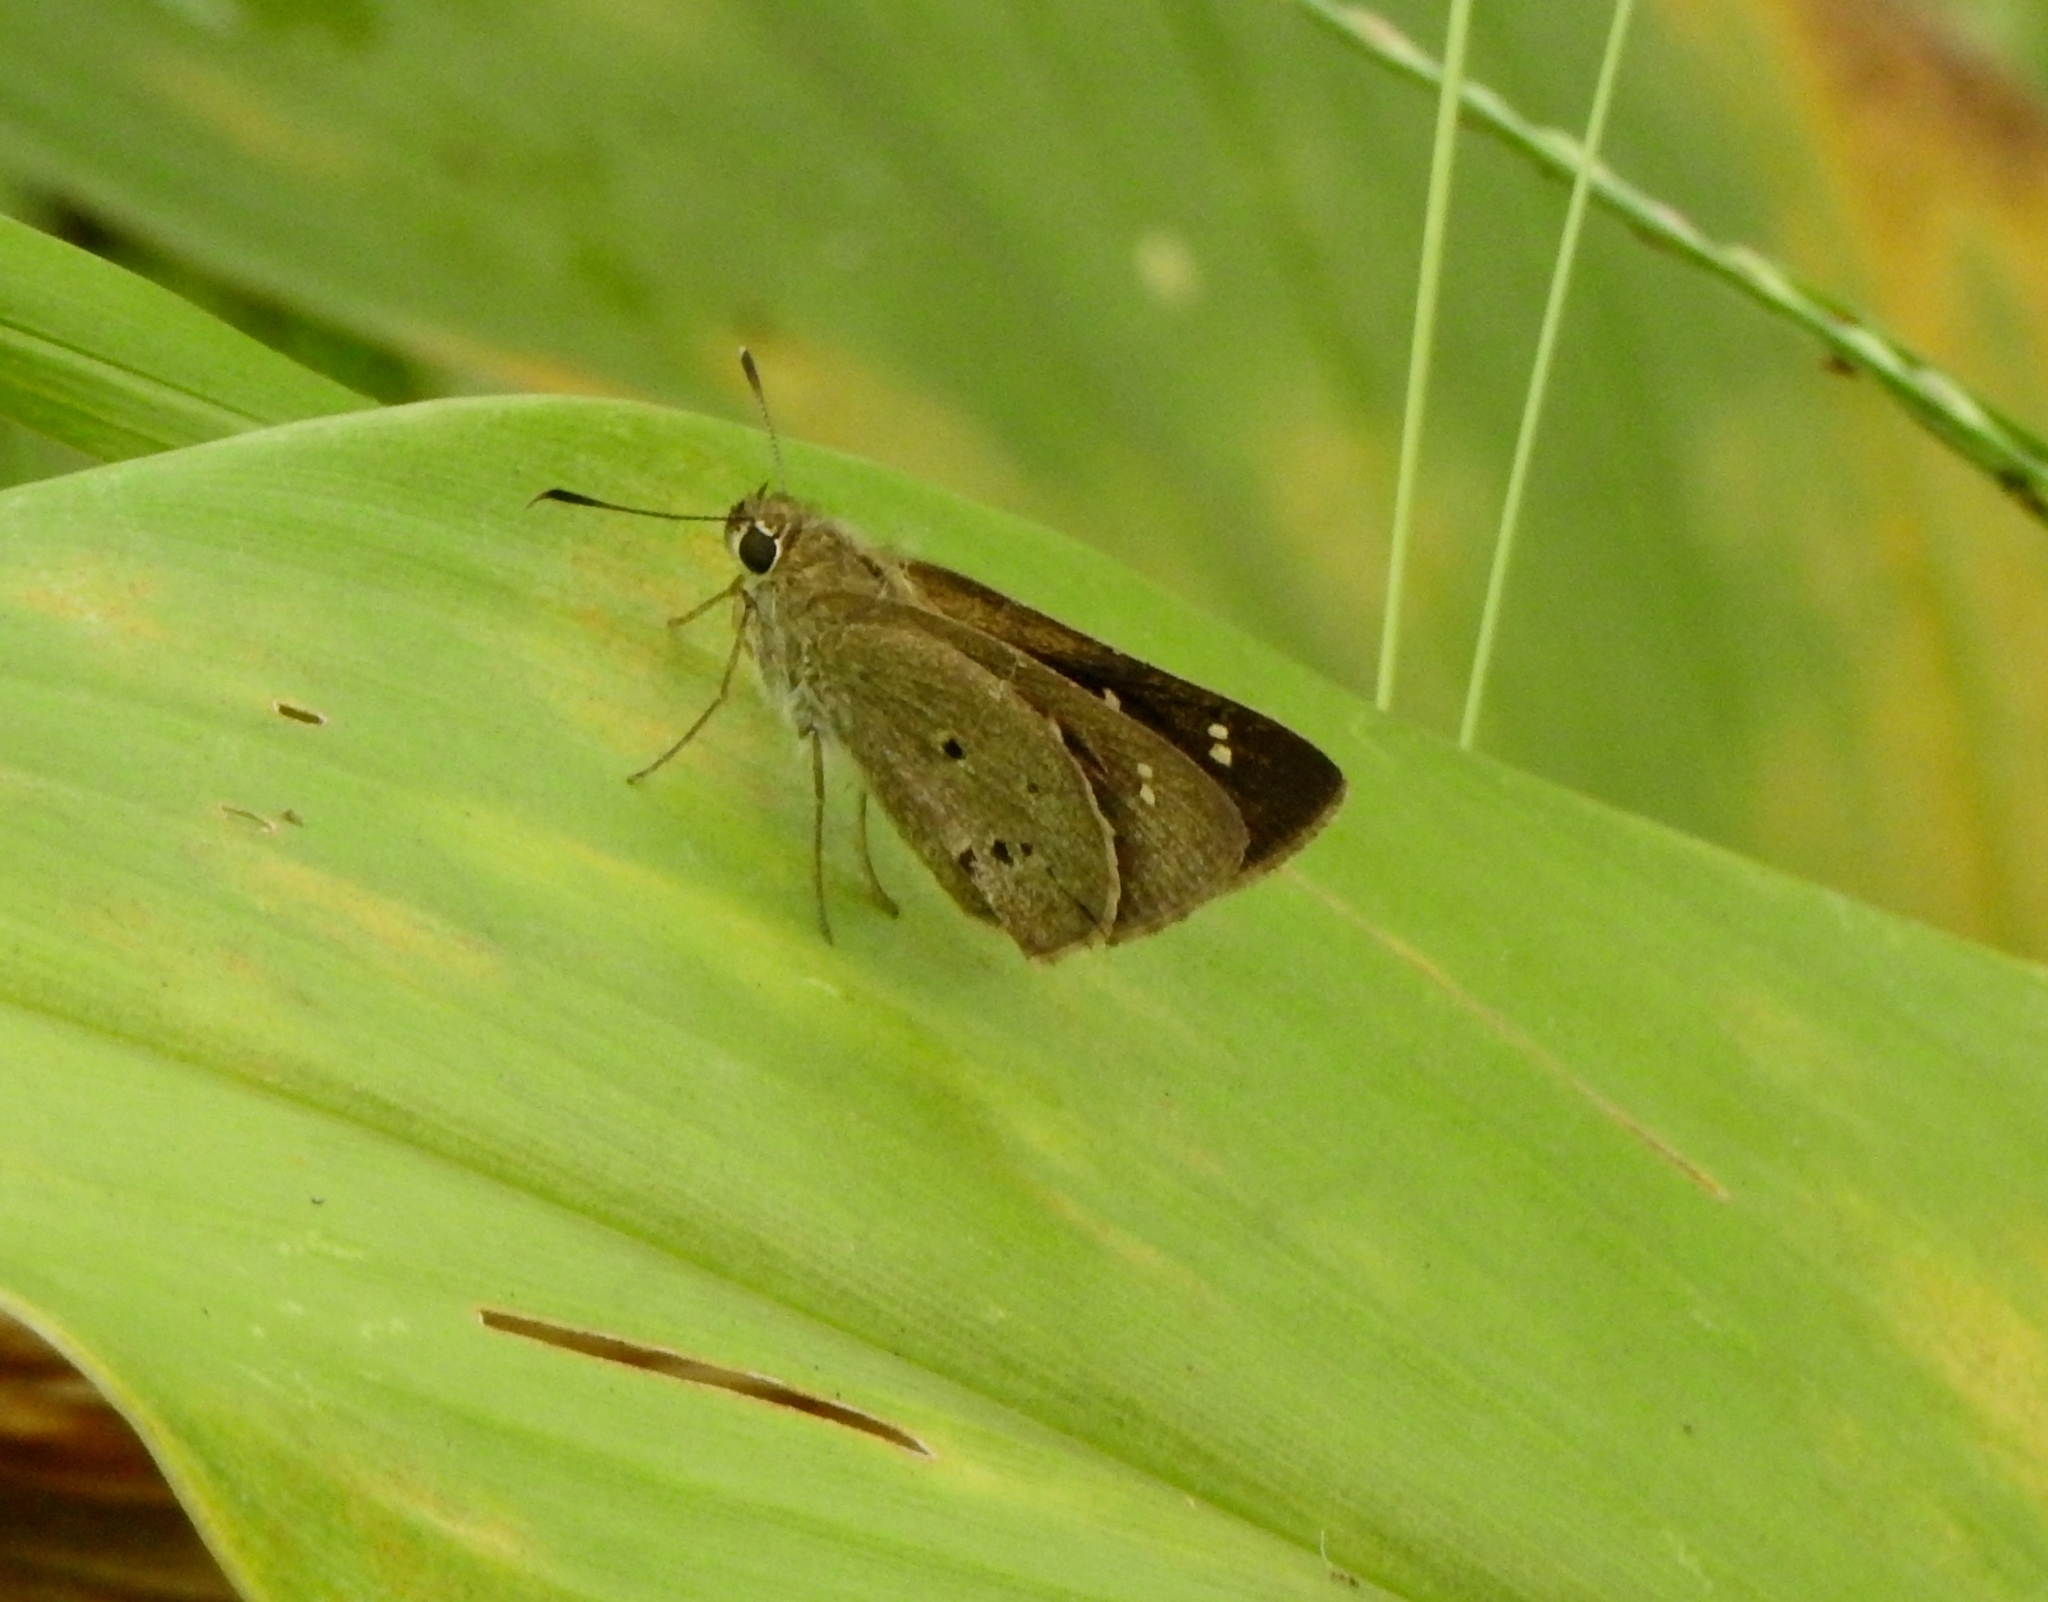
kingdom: Animalia
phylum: Arthropoda
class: Insecta
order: Lepidoptera
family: Hesperiidae
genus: Suastus
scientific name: Suastus gremius
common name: Indian palm bob
